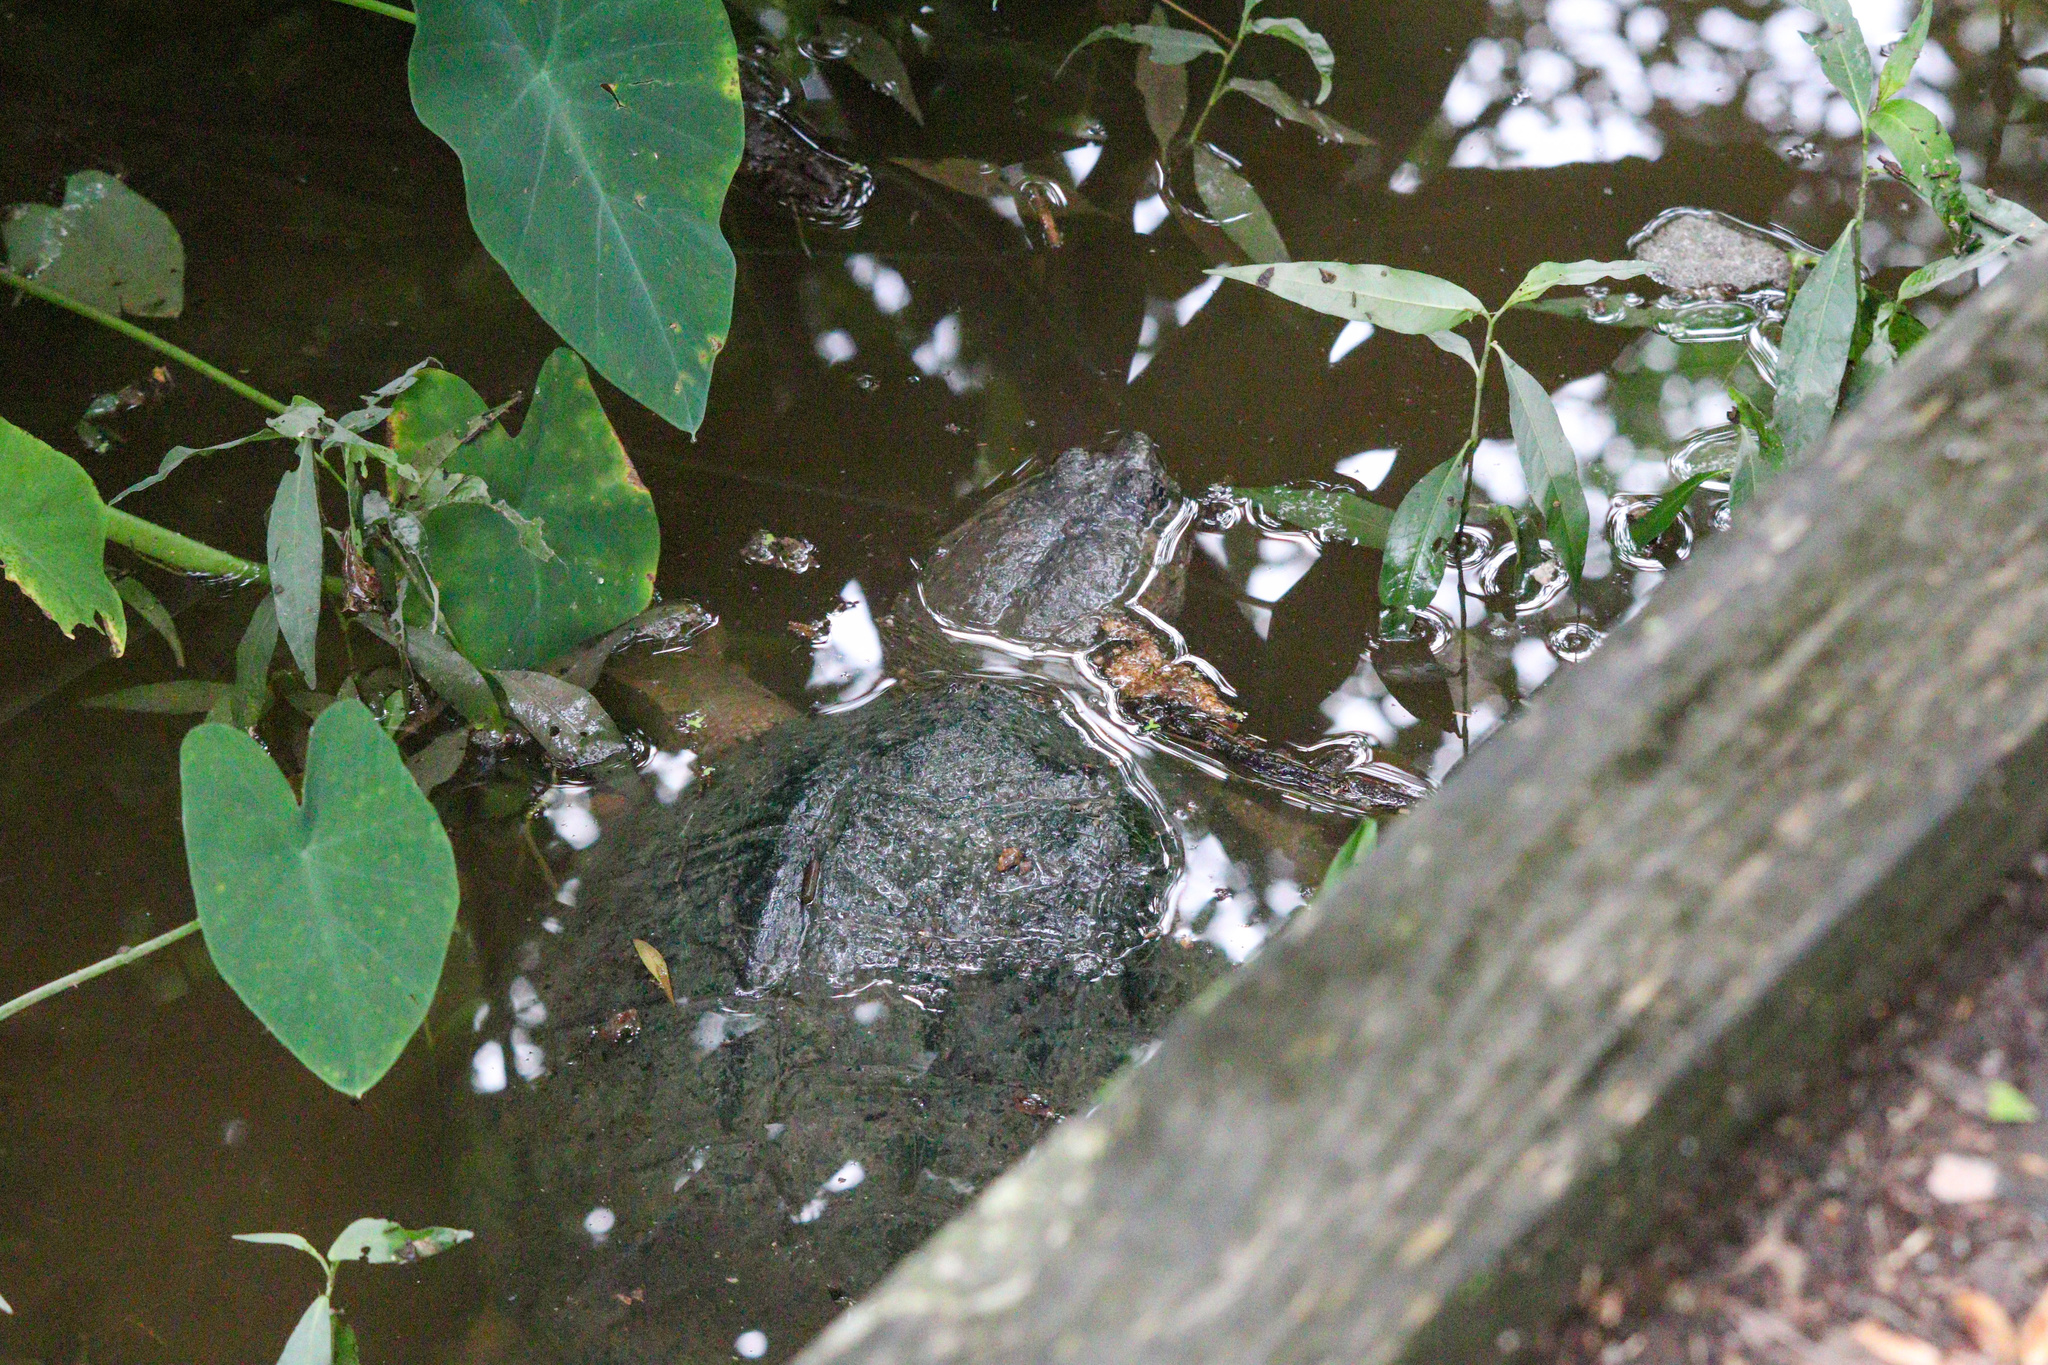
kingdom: Animalia
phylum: Chordata
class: Testudines
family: Chelydridae
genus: Chelydra
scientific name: Chelydra serpentina
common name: Common snapping turtle
